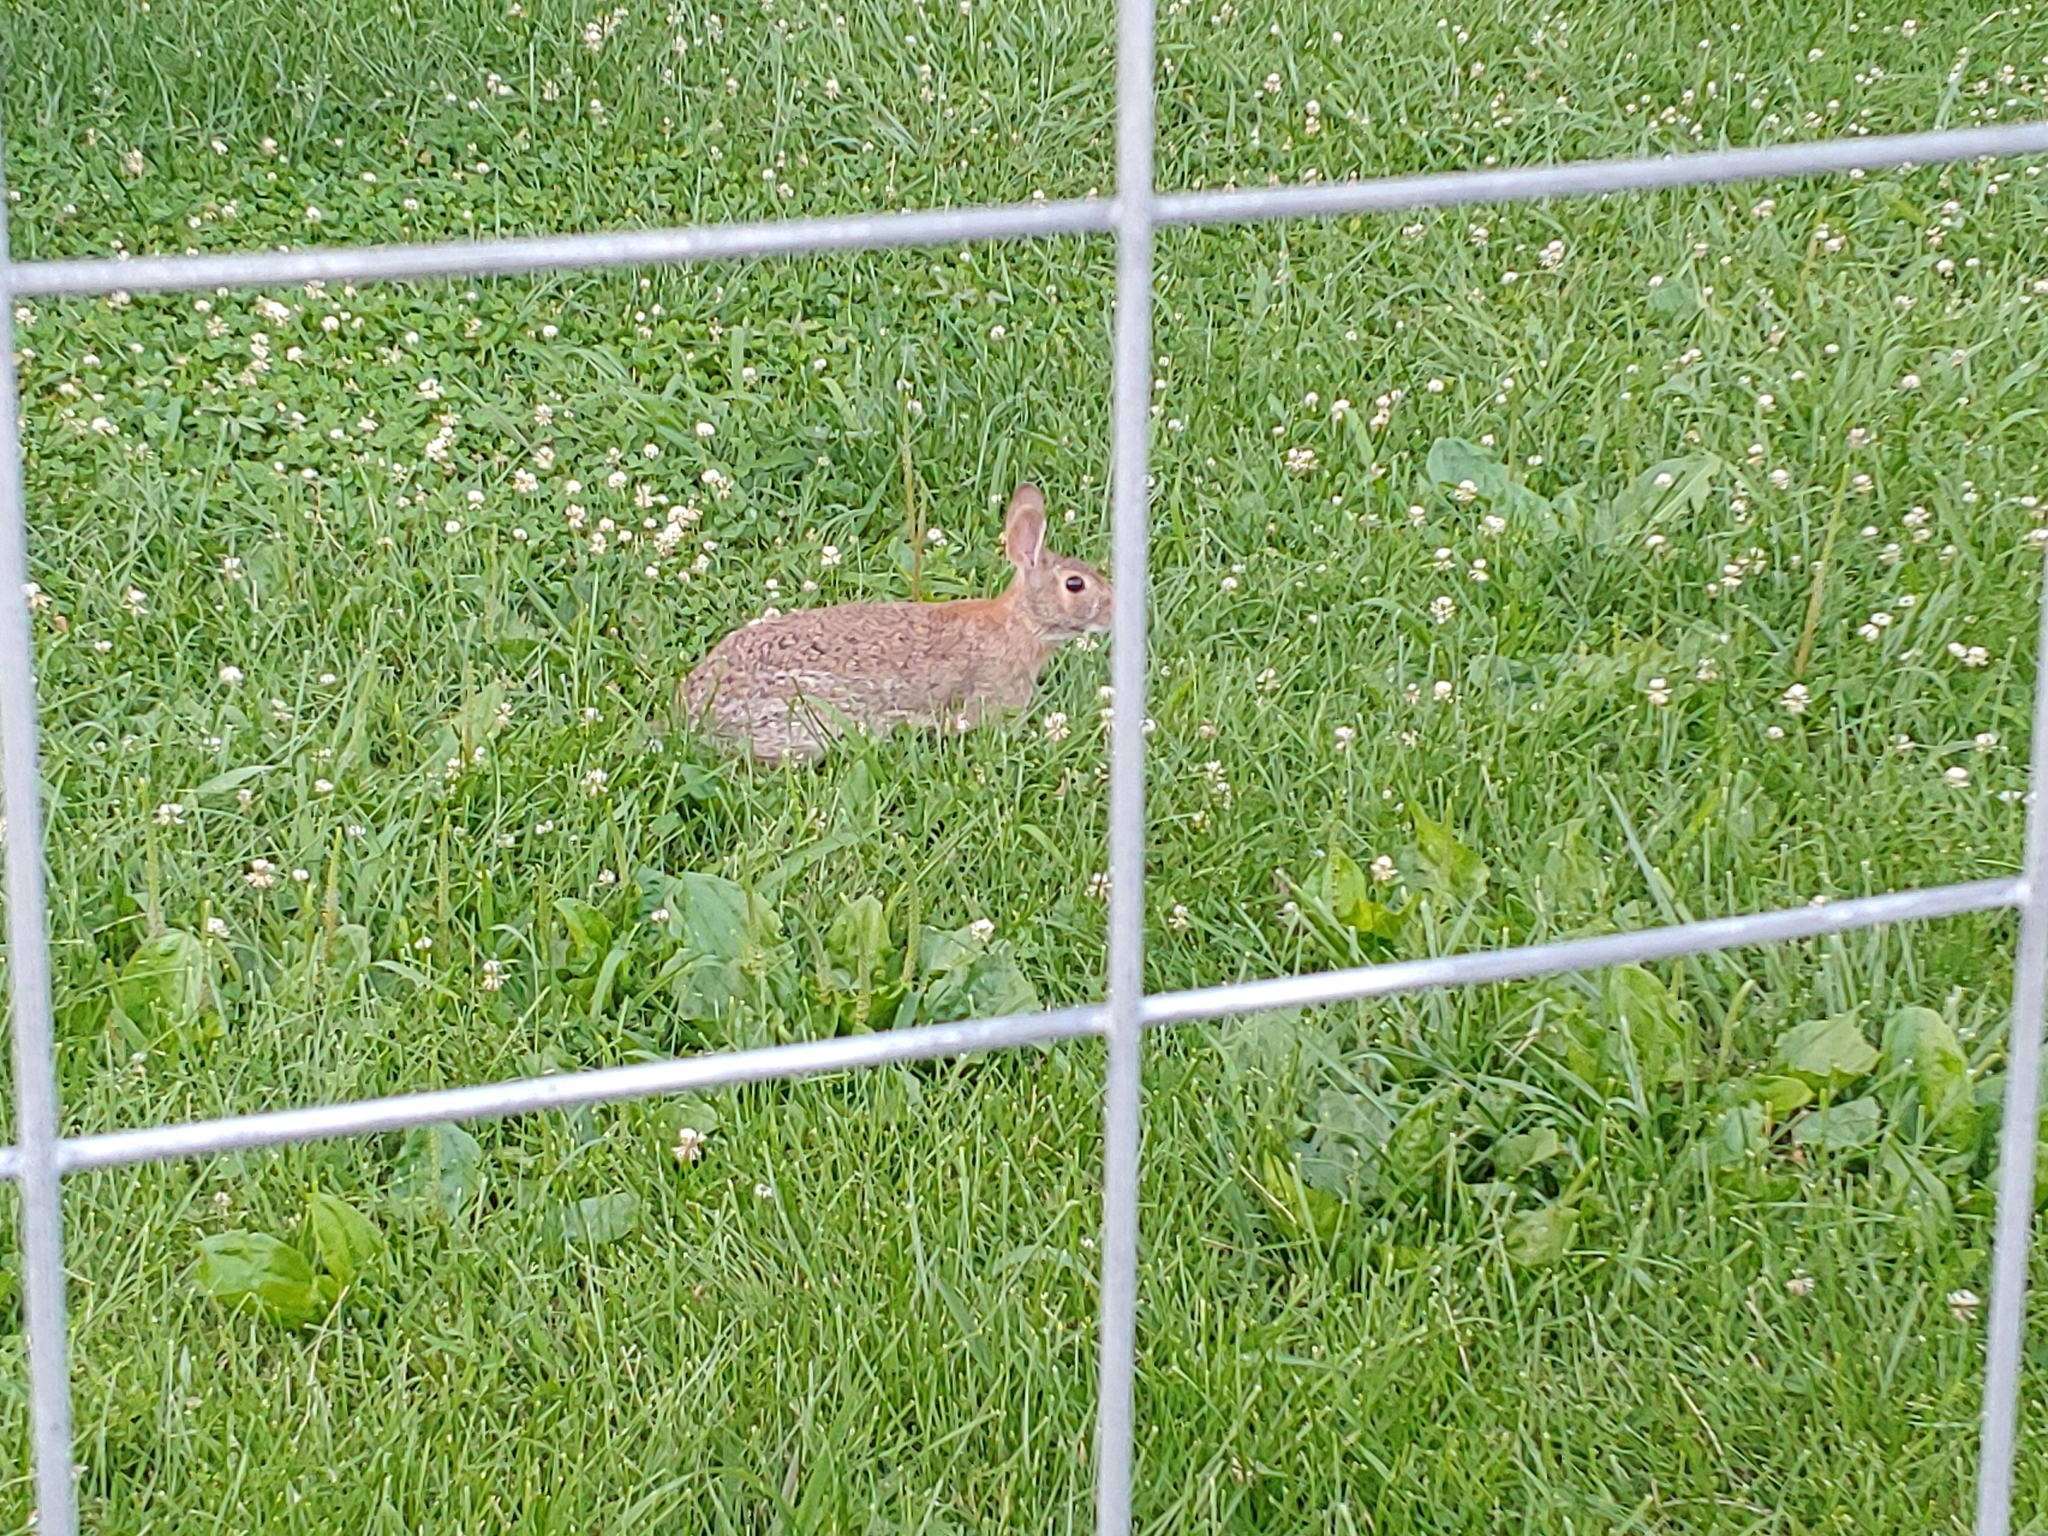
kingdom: Animalia
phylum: Chordata
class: Mammalia
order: Lagomorpha
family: Leporidae
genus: Sylvilagus
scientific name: Sylvilagus floridanus
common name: Eastern cottontail
